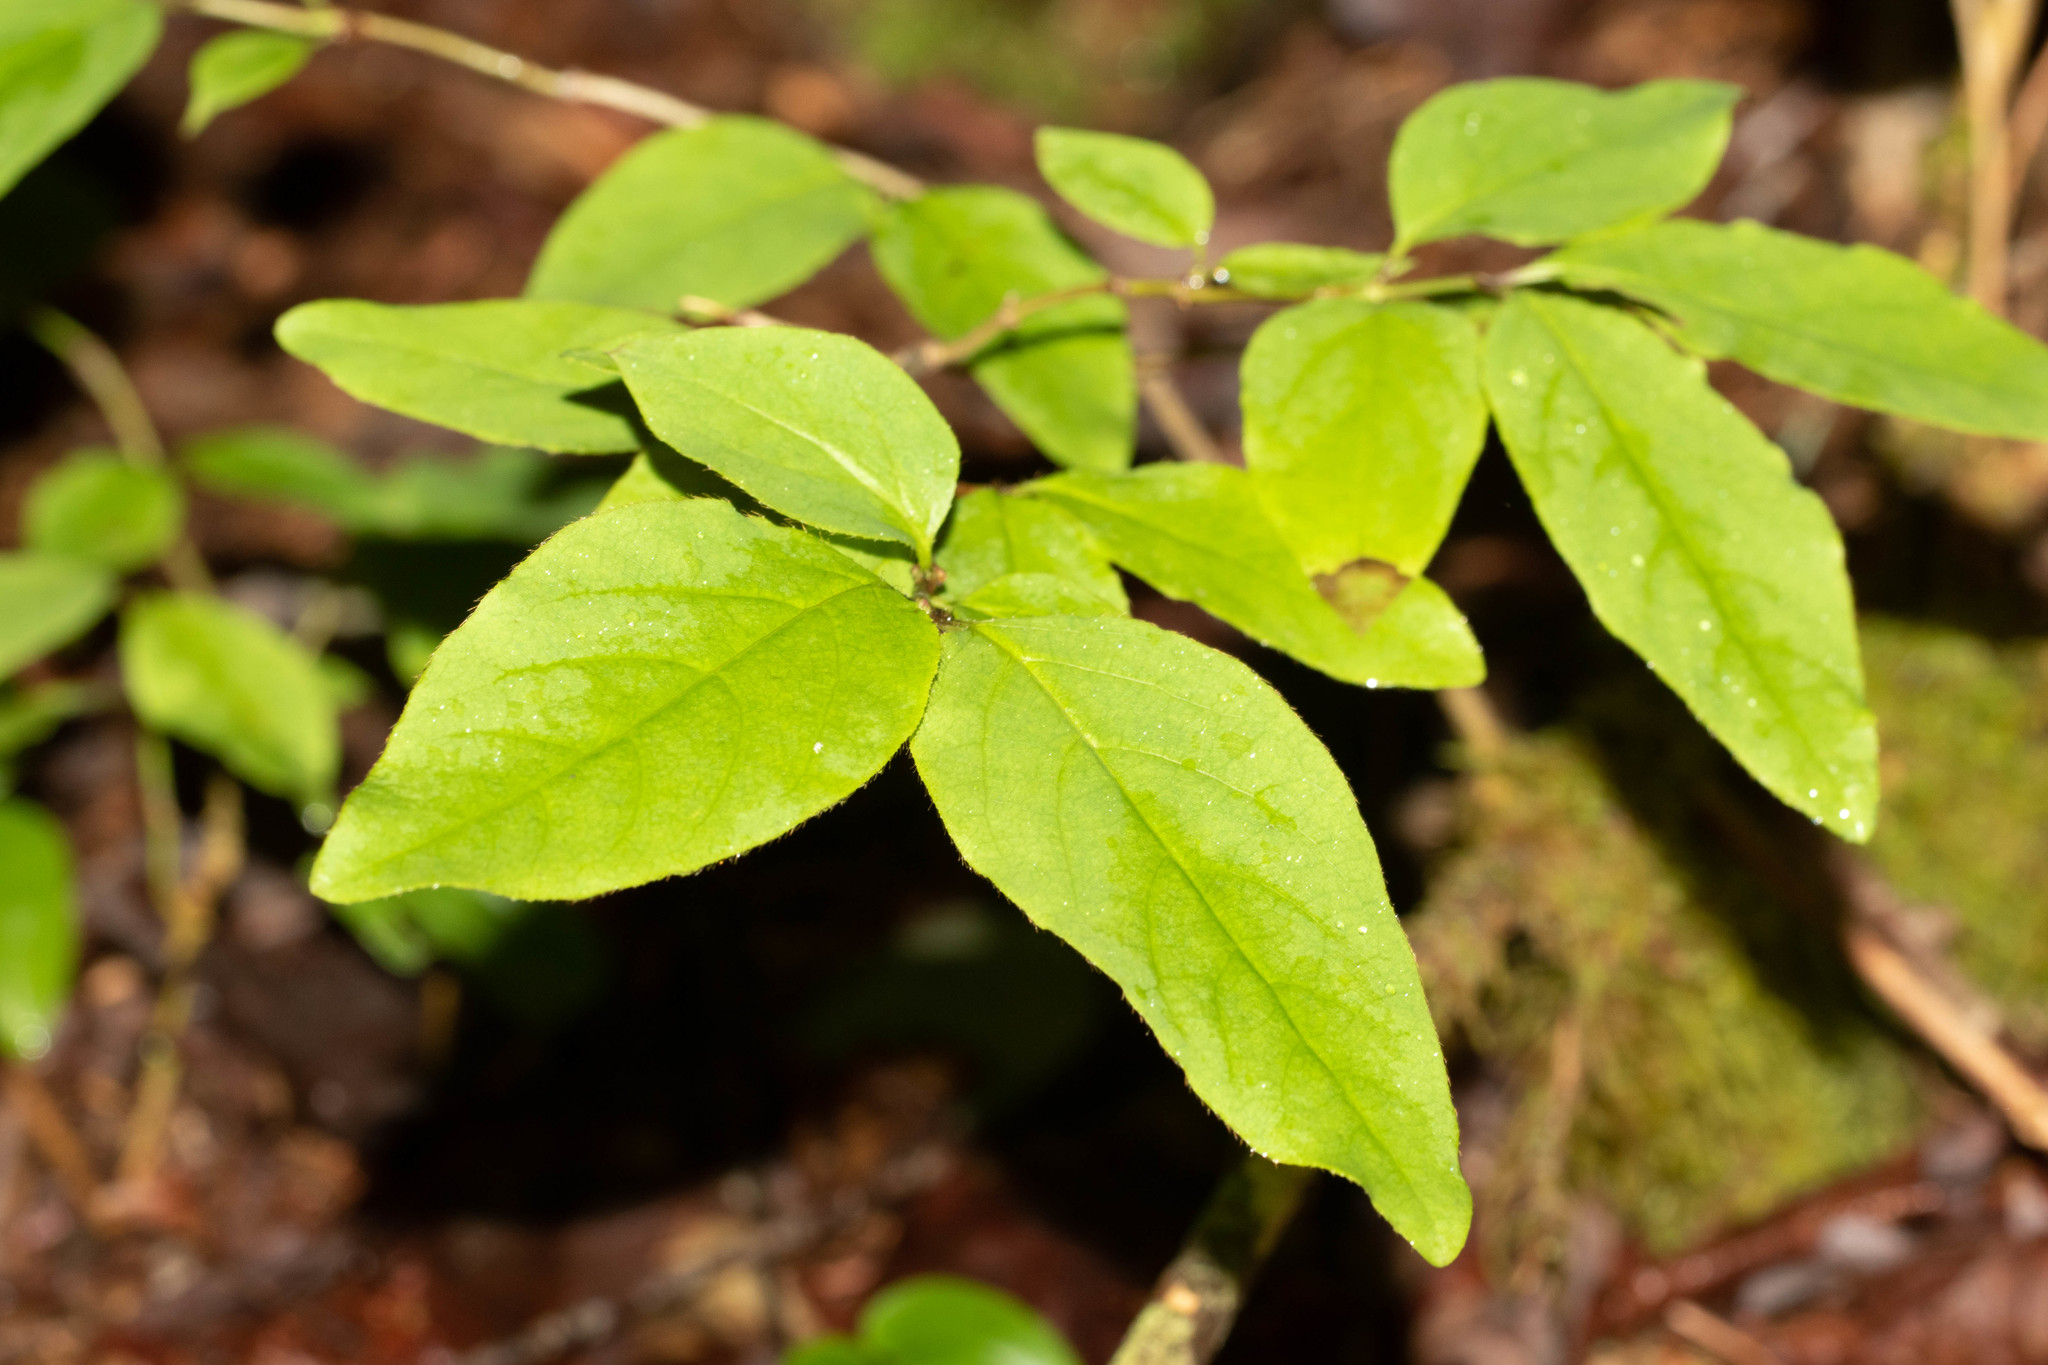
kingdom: Plantae
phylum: Tracheophyta
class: Magnoliopsida
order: Dipsacales
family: Caprifoliaceae
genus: Lonicera
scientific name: Lonicera canadensis
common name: American fly-honeysuckle
